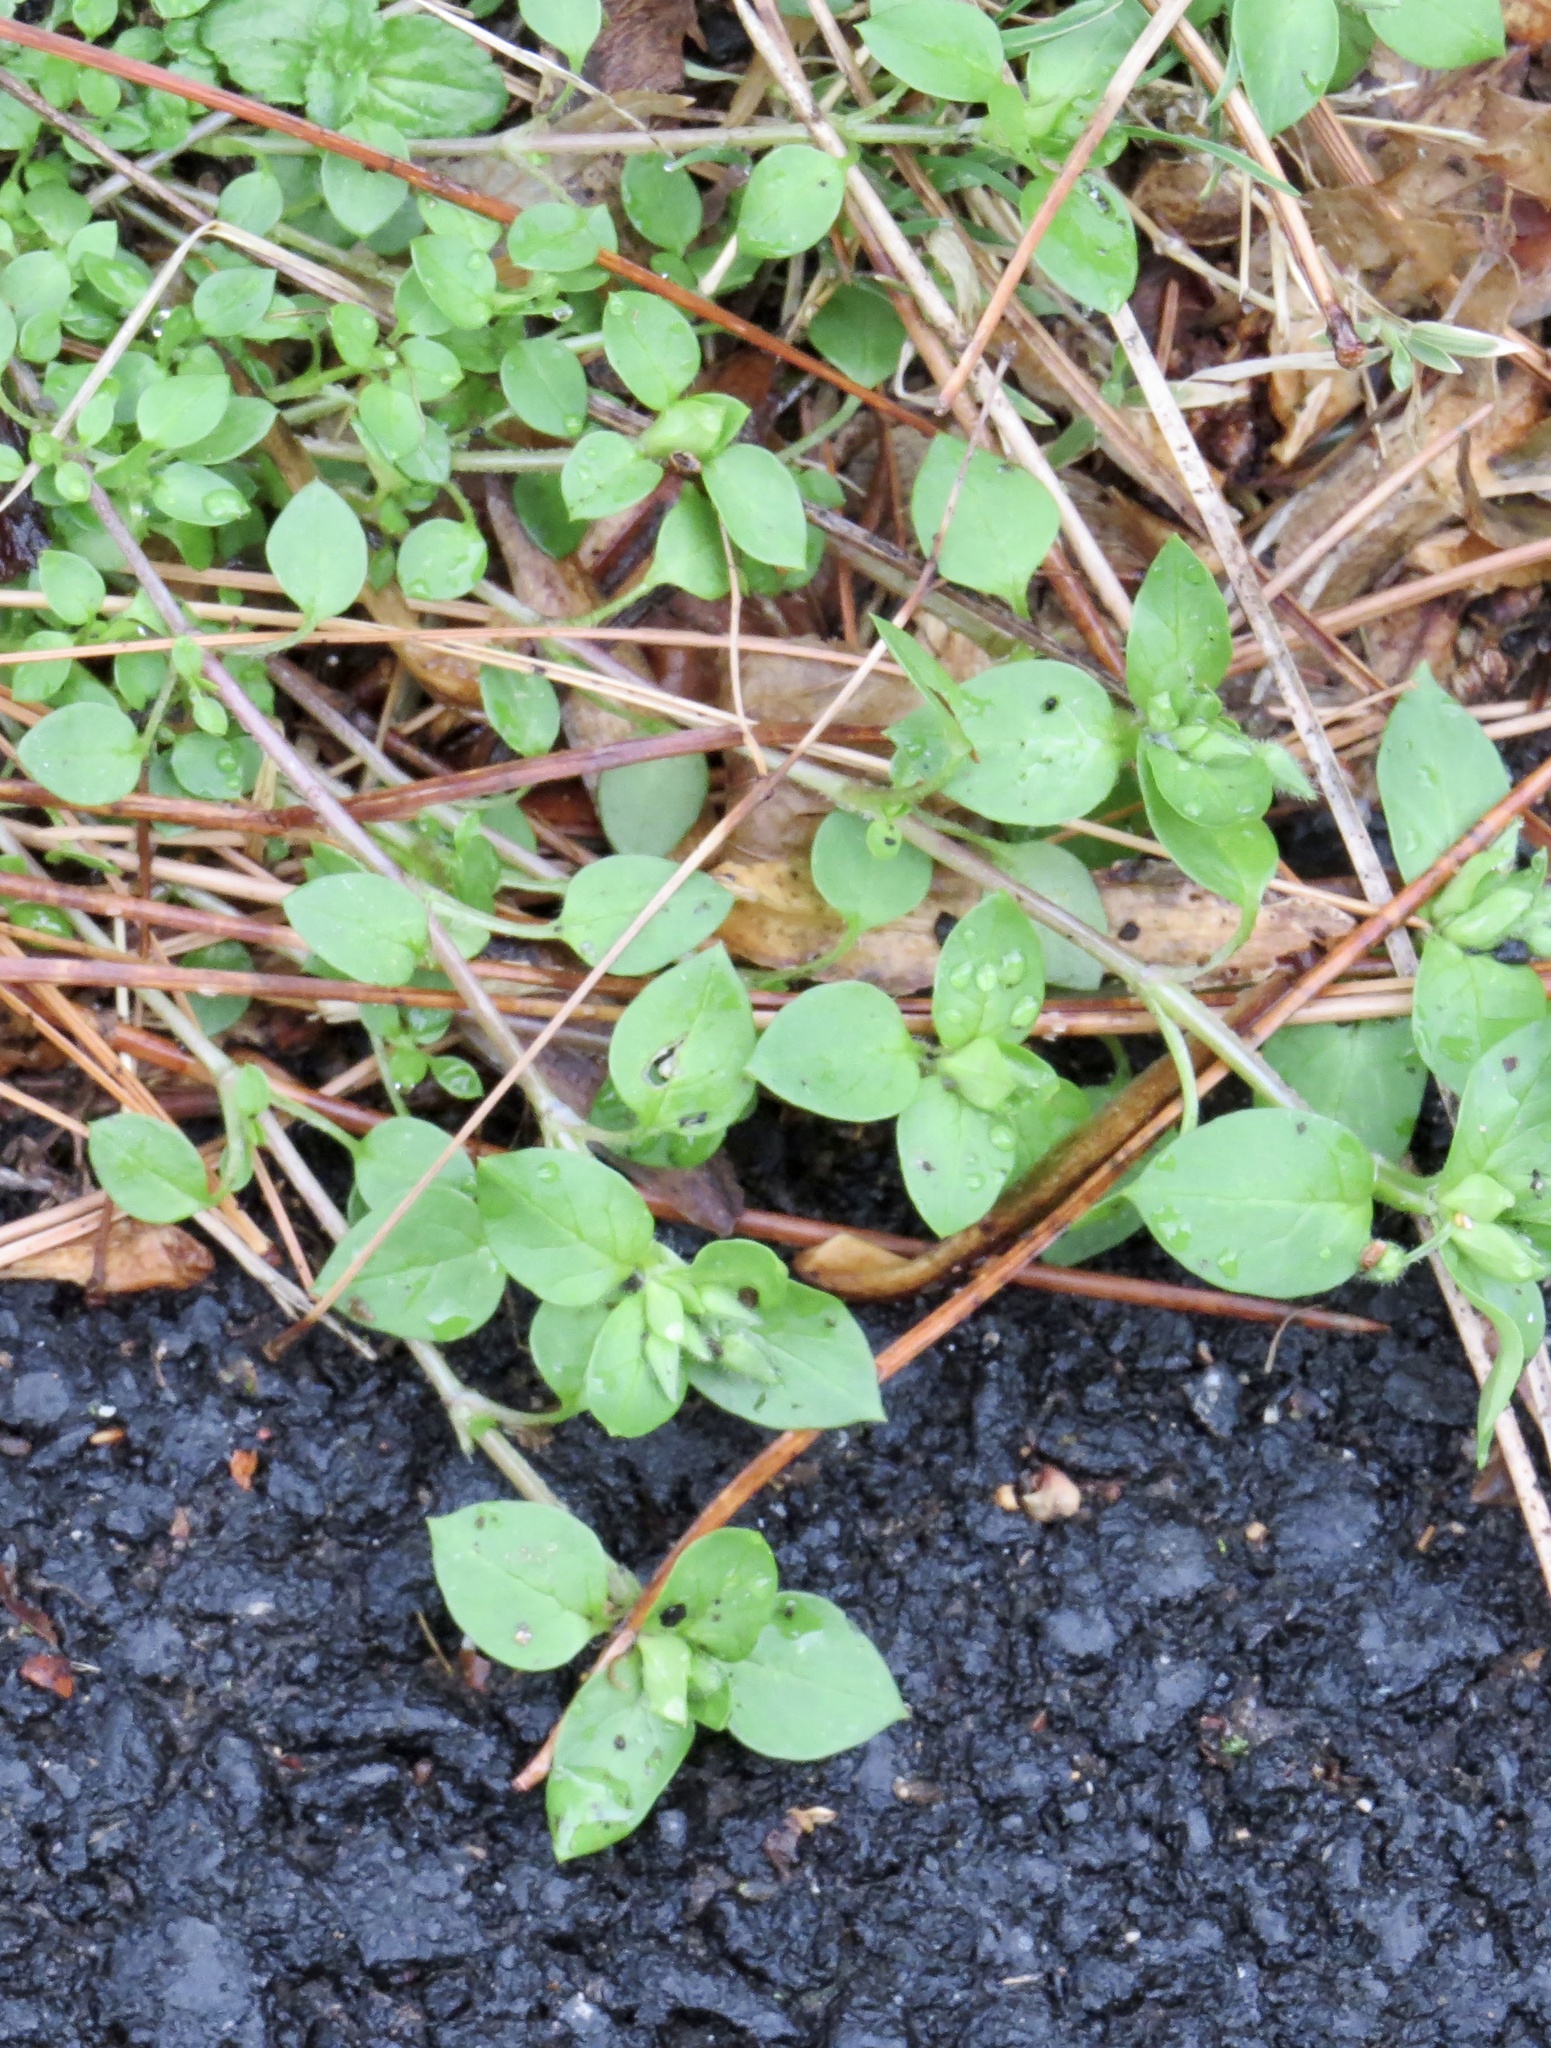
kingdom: Plantae
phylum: Tracheophyta
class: Magnoliopsida
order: Caryophyllales
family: Caryophyllaceae
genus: Stellaria
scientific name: Stellaria media
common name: Common chickweed
